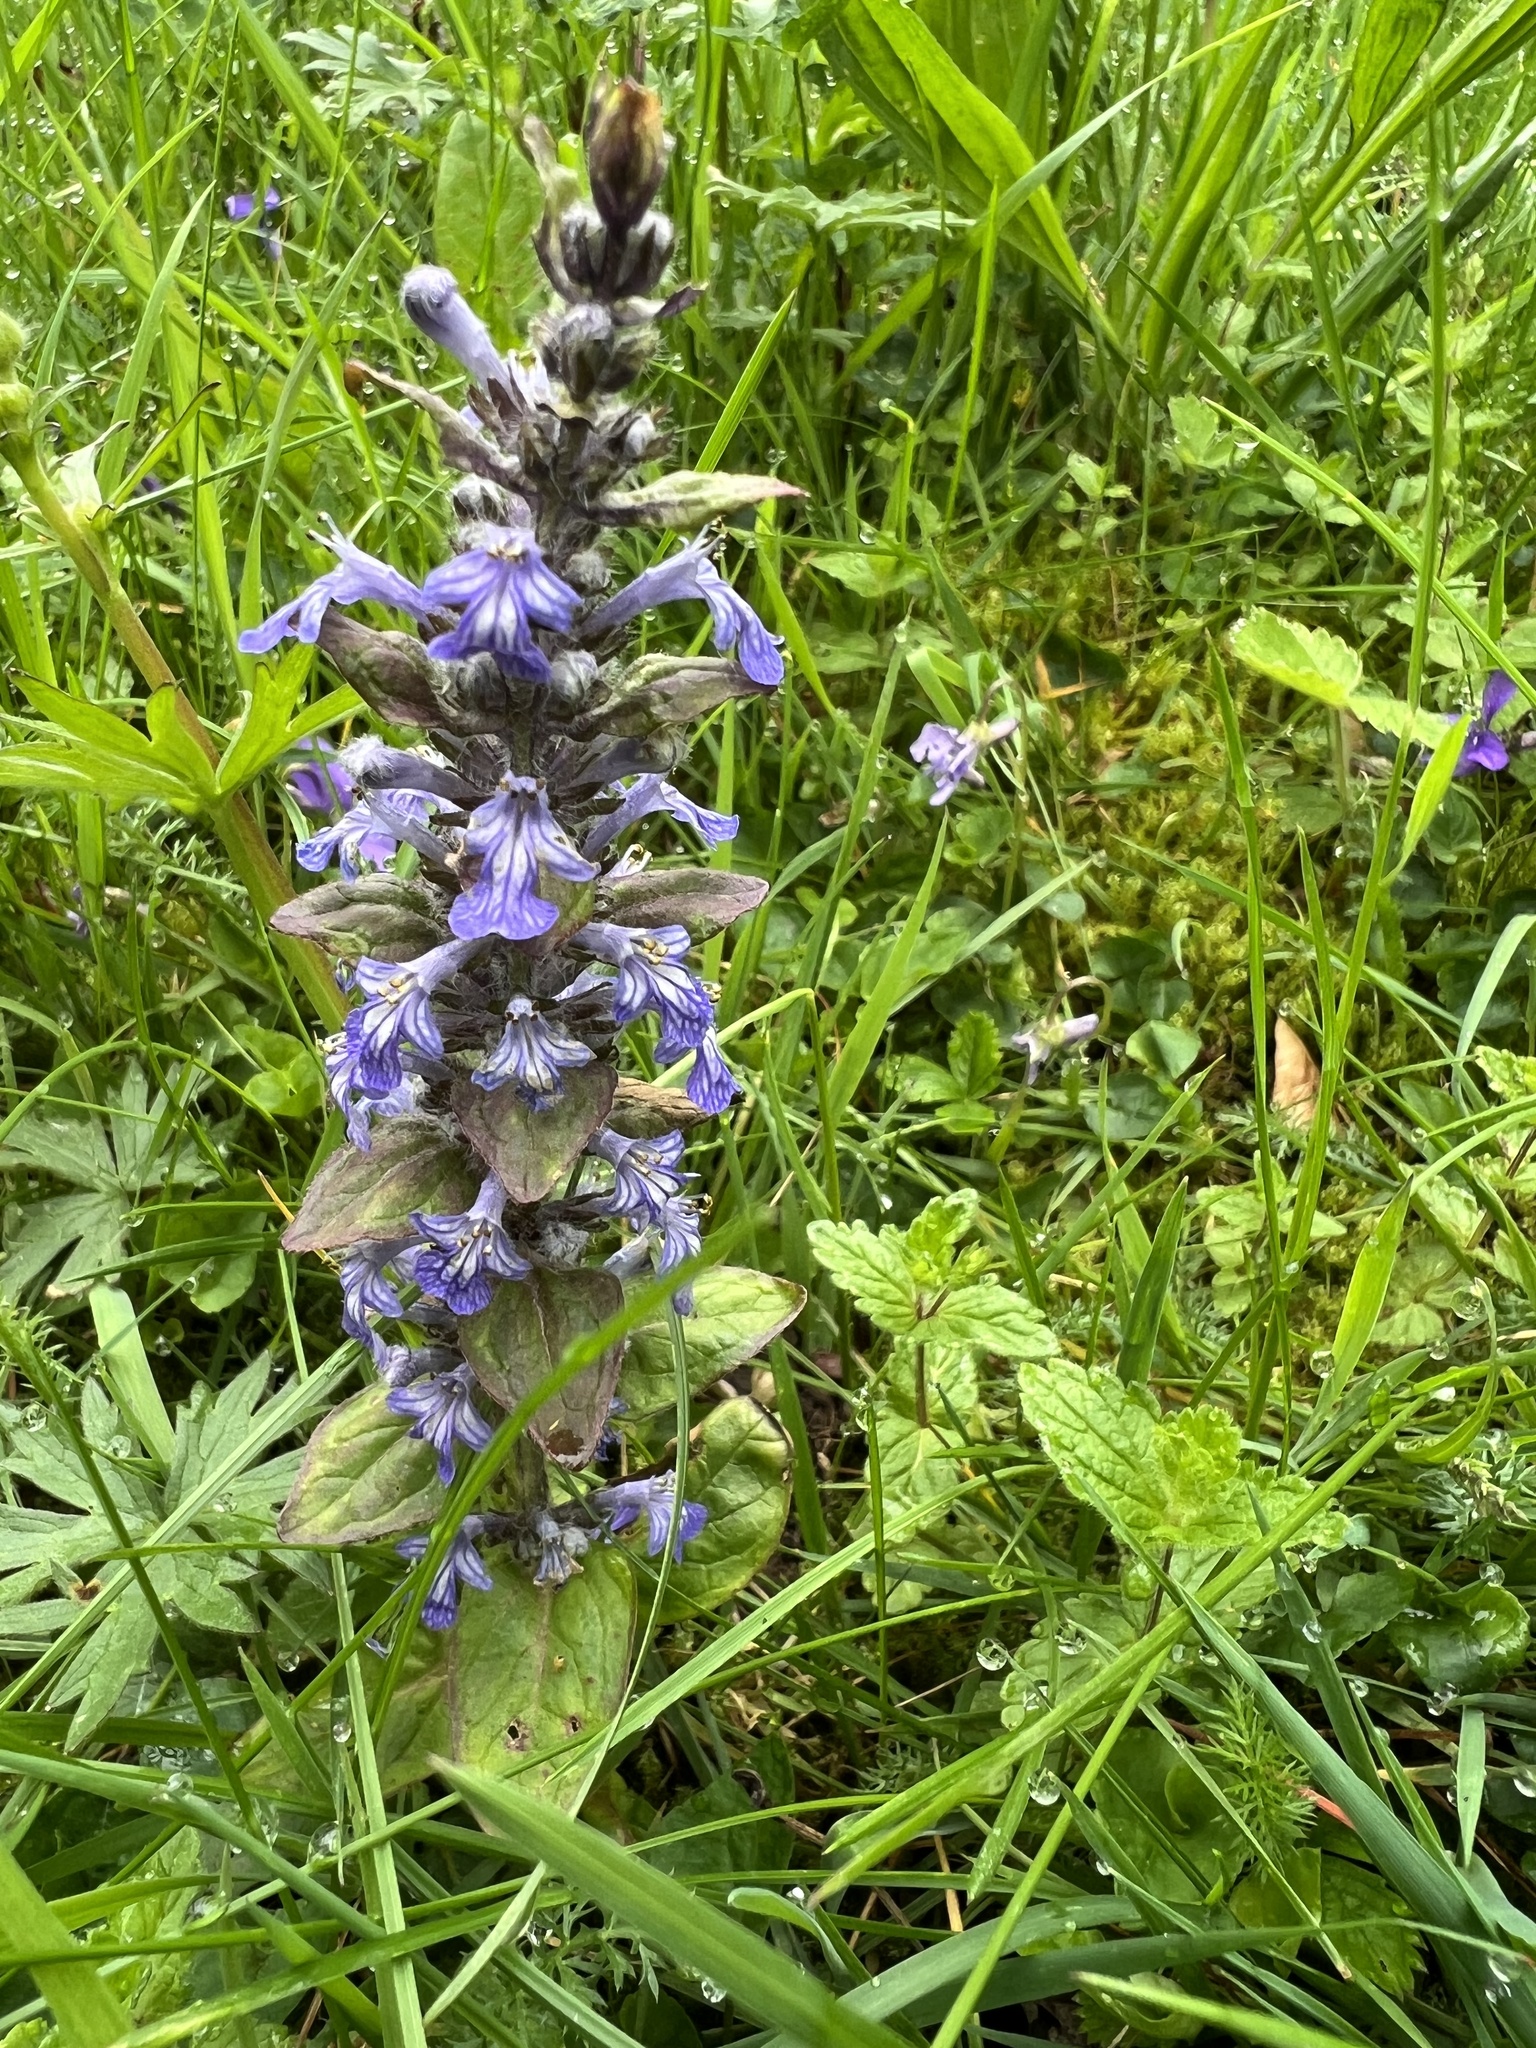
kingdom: Plantae
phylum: Tracheophyta
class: Magnoliopsida
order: Lamiales
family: Lamiaceae
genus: Ajuga
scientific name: Ajuga reptans
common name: Bugle
